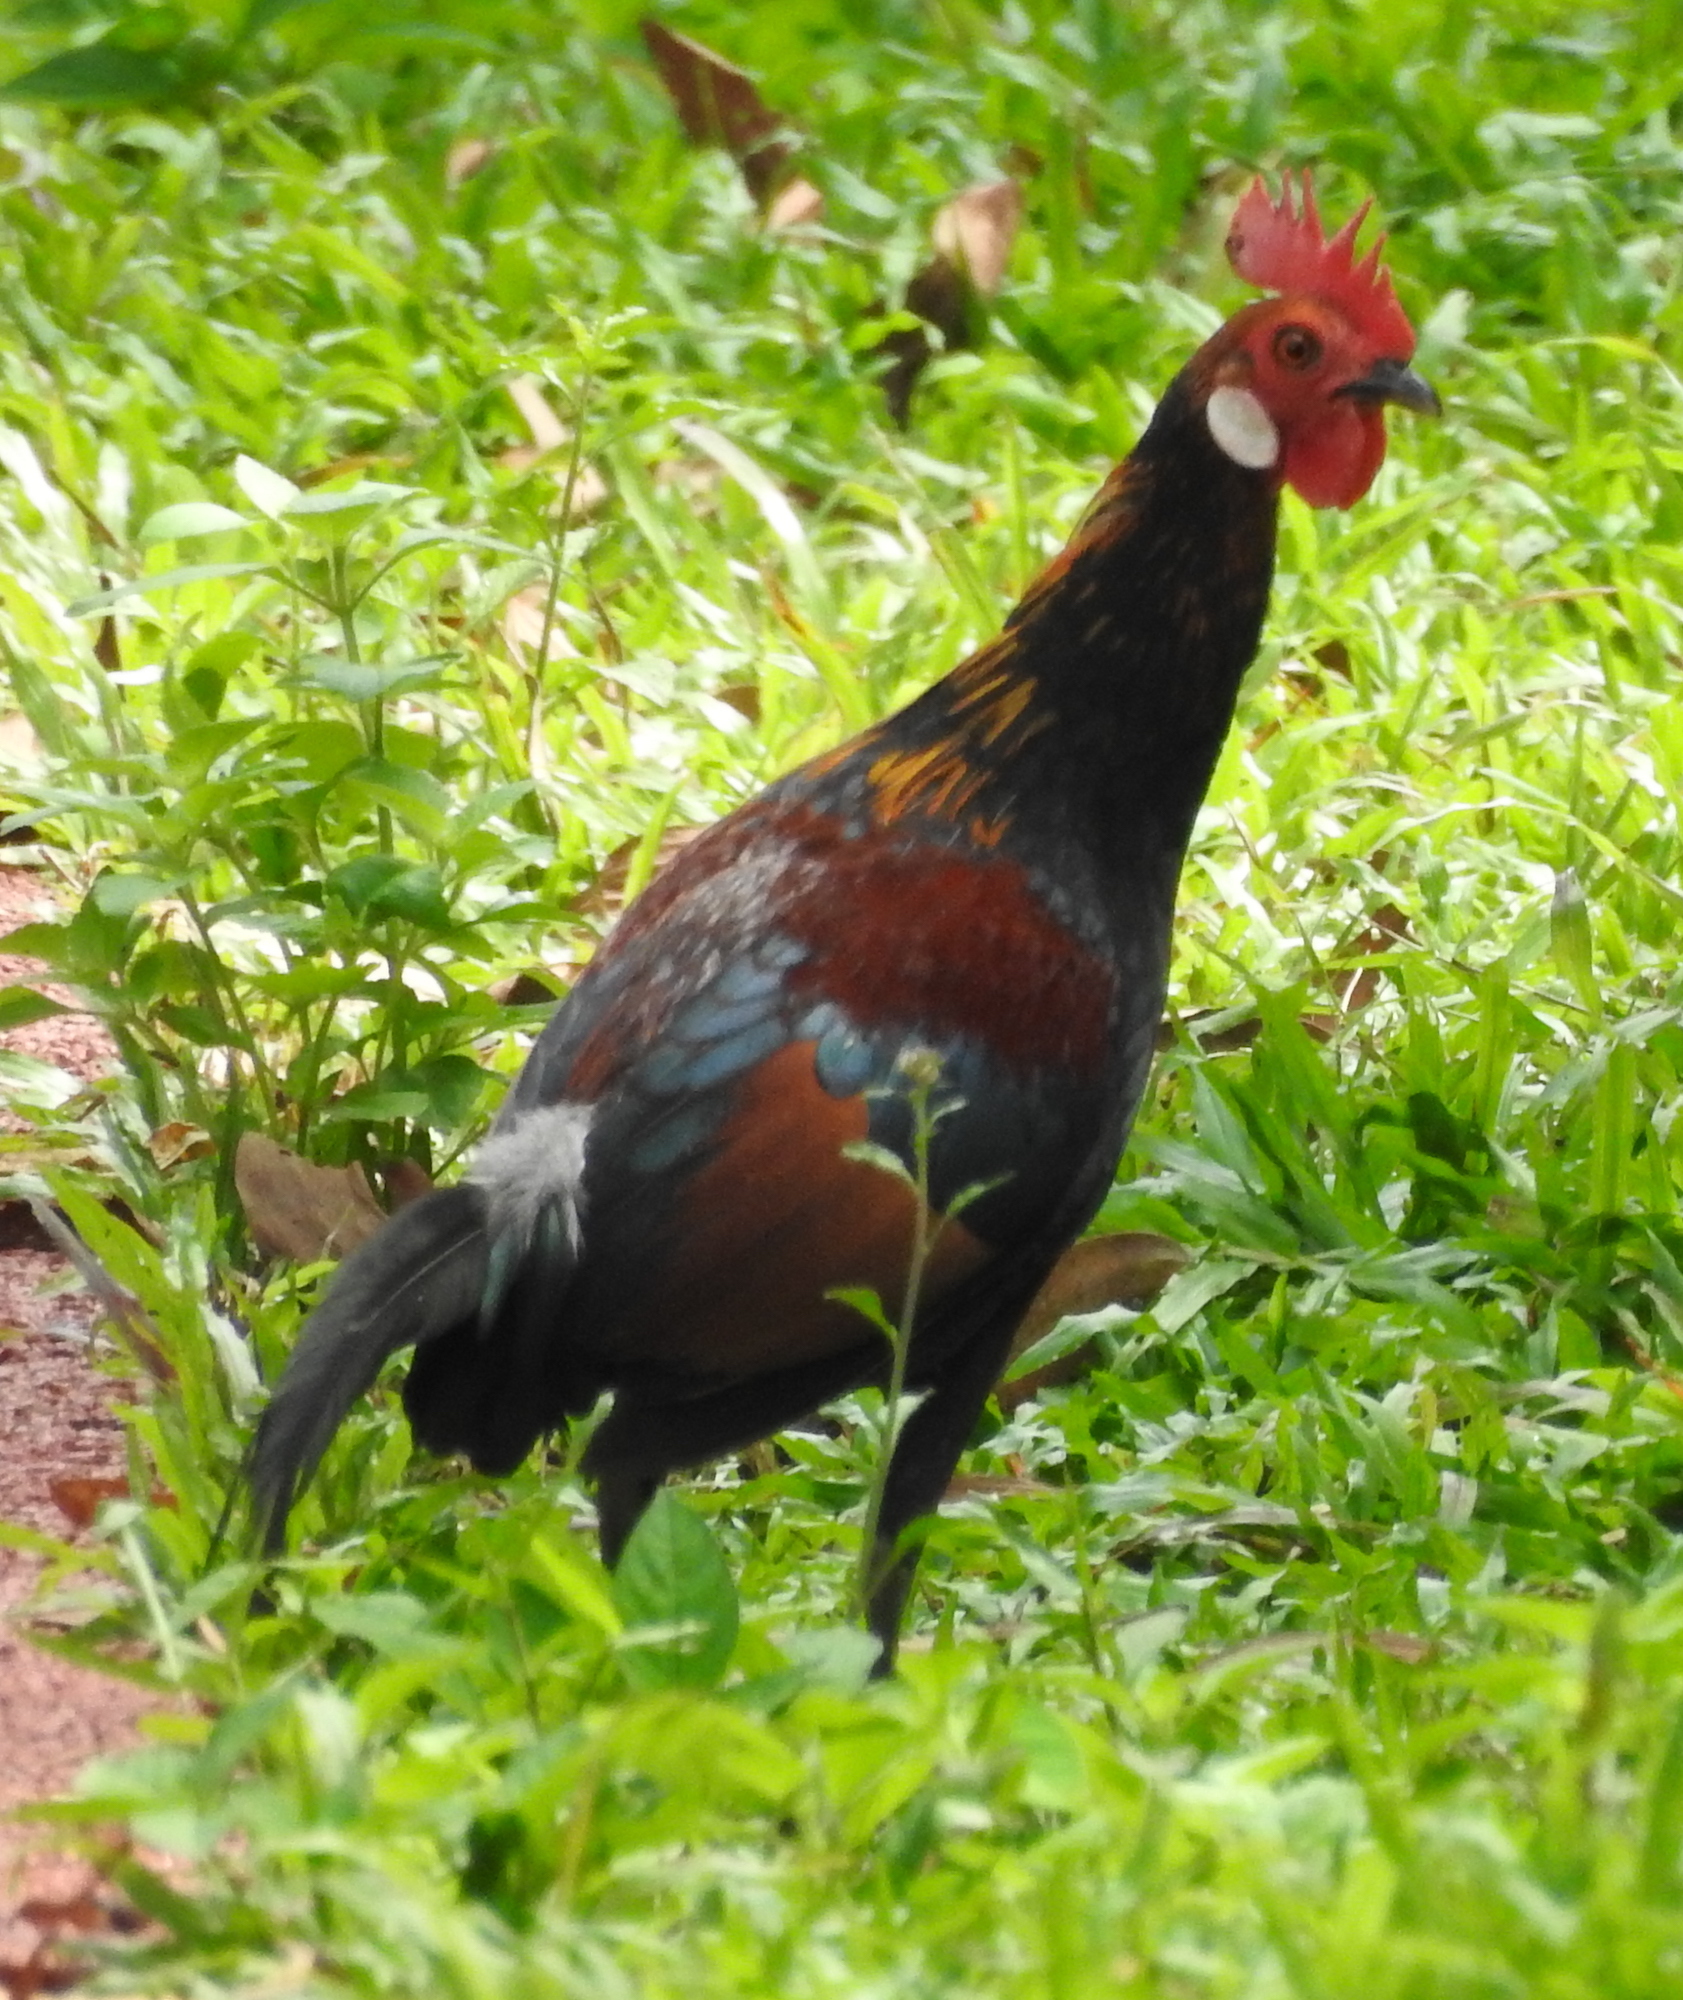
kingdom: Animalia
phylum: Chordata
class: Aves
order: Galliformes
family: Phasianidae
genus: Gallus
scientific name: Gallus gallus
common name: Red junglefowl
